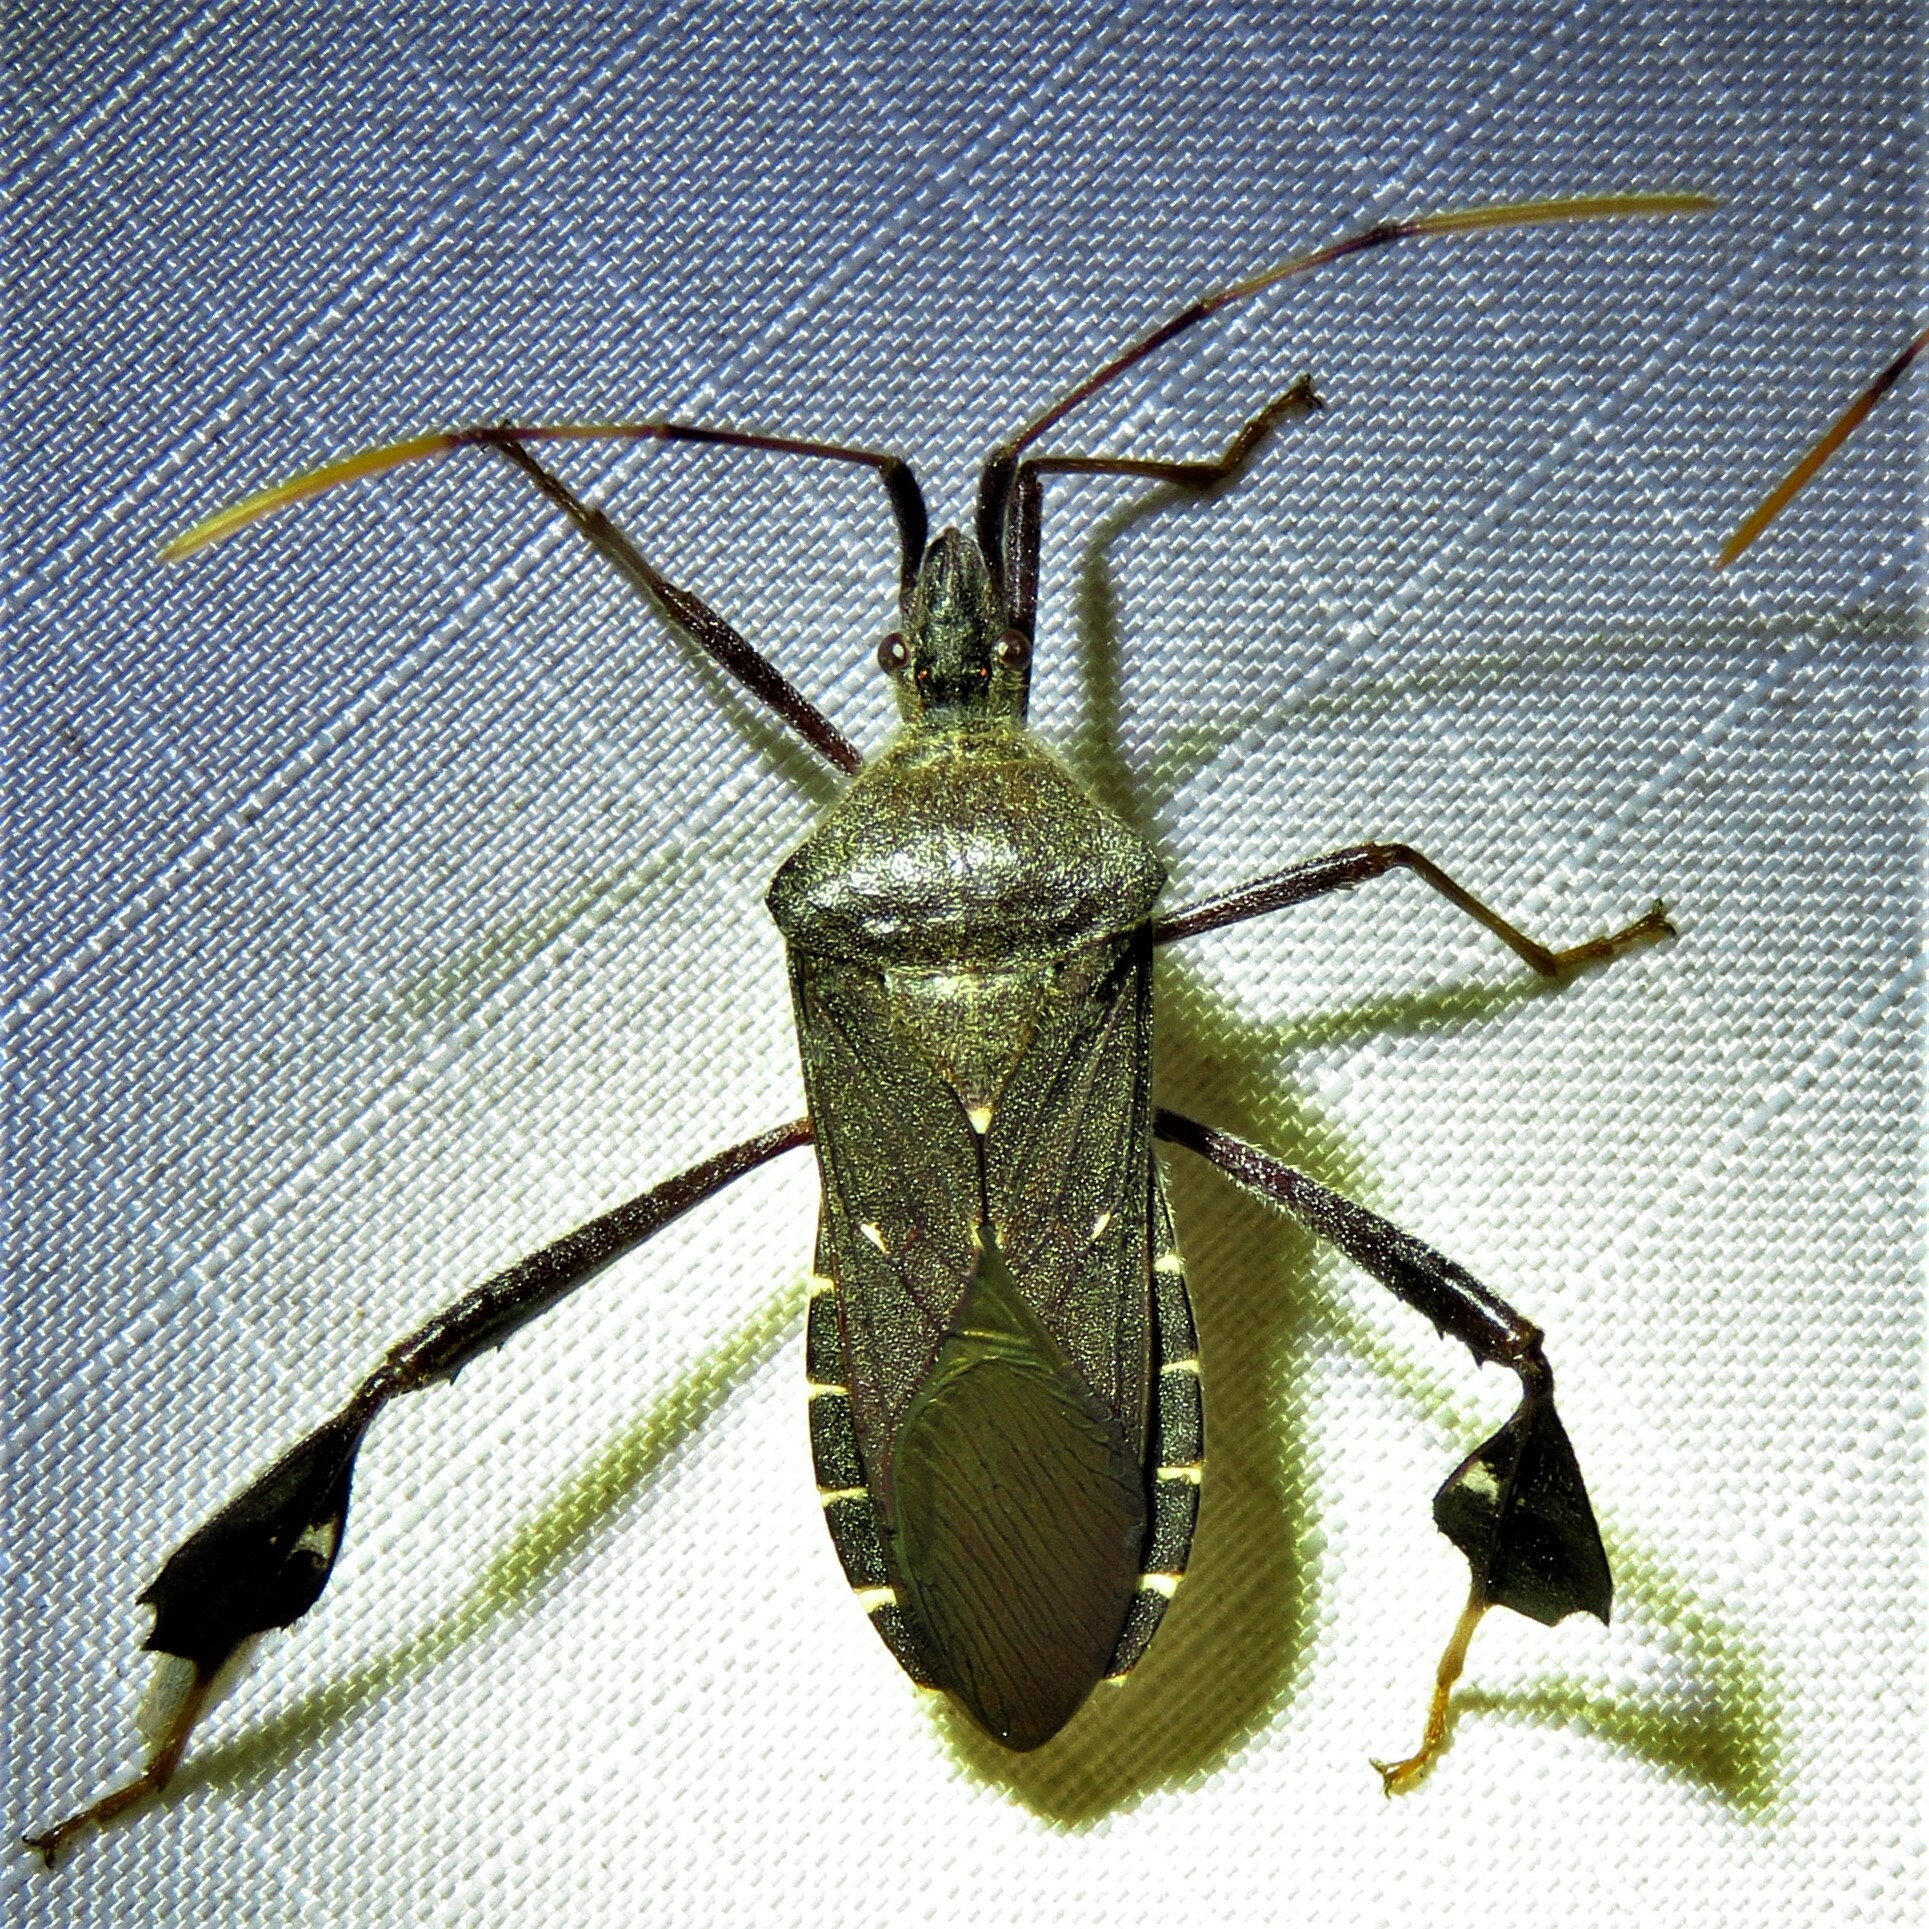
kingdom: Animalia
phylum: Arthropoda
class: Insecta
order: Hemiptera
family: Coreidae
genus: Leptoglossus
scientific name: Leptoglossus oppositus
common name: Northern leaf-footed bug
